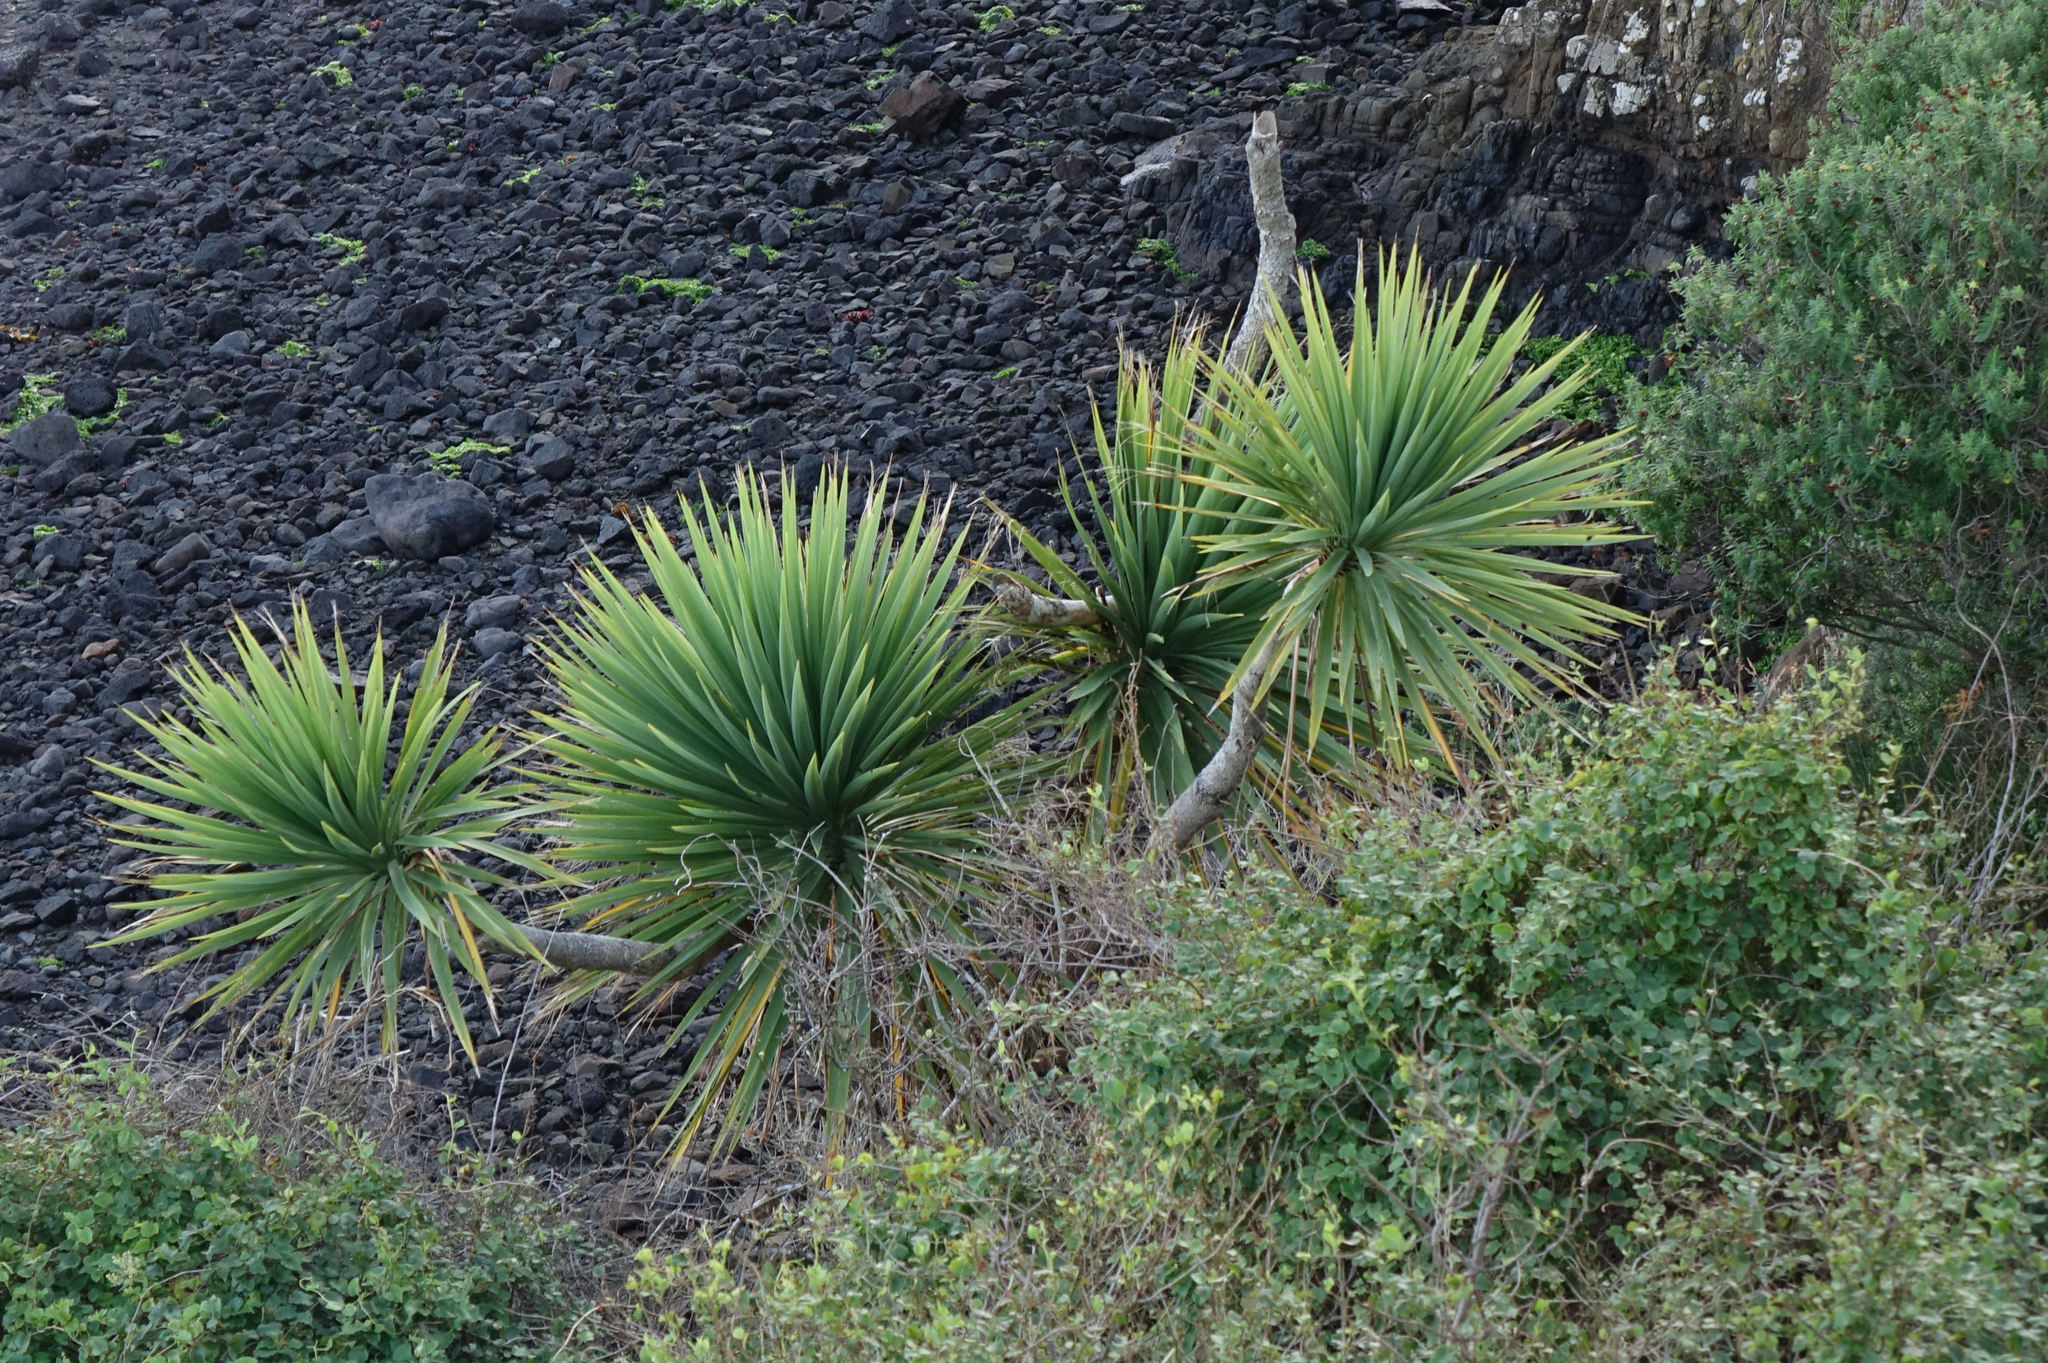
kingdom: Plantae
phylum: Tracheophyta
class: Liliopsida
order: Asparagales
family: Asparagaceae
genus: Cordyline
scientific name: Cordyline australis
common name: Cabbage-palm
